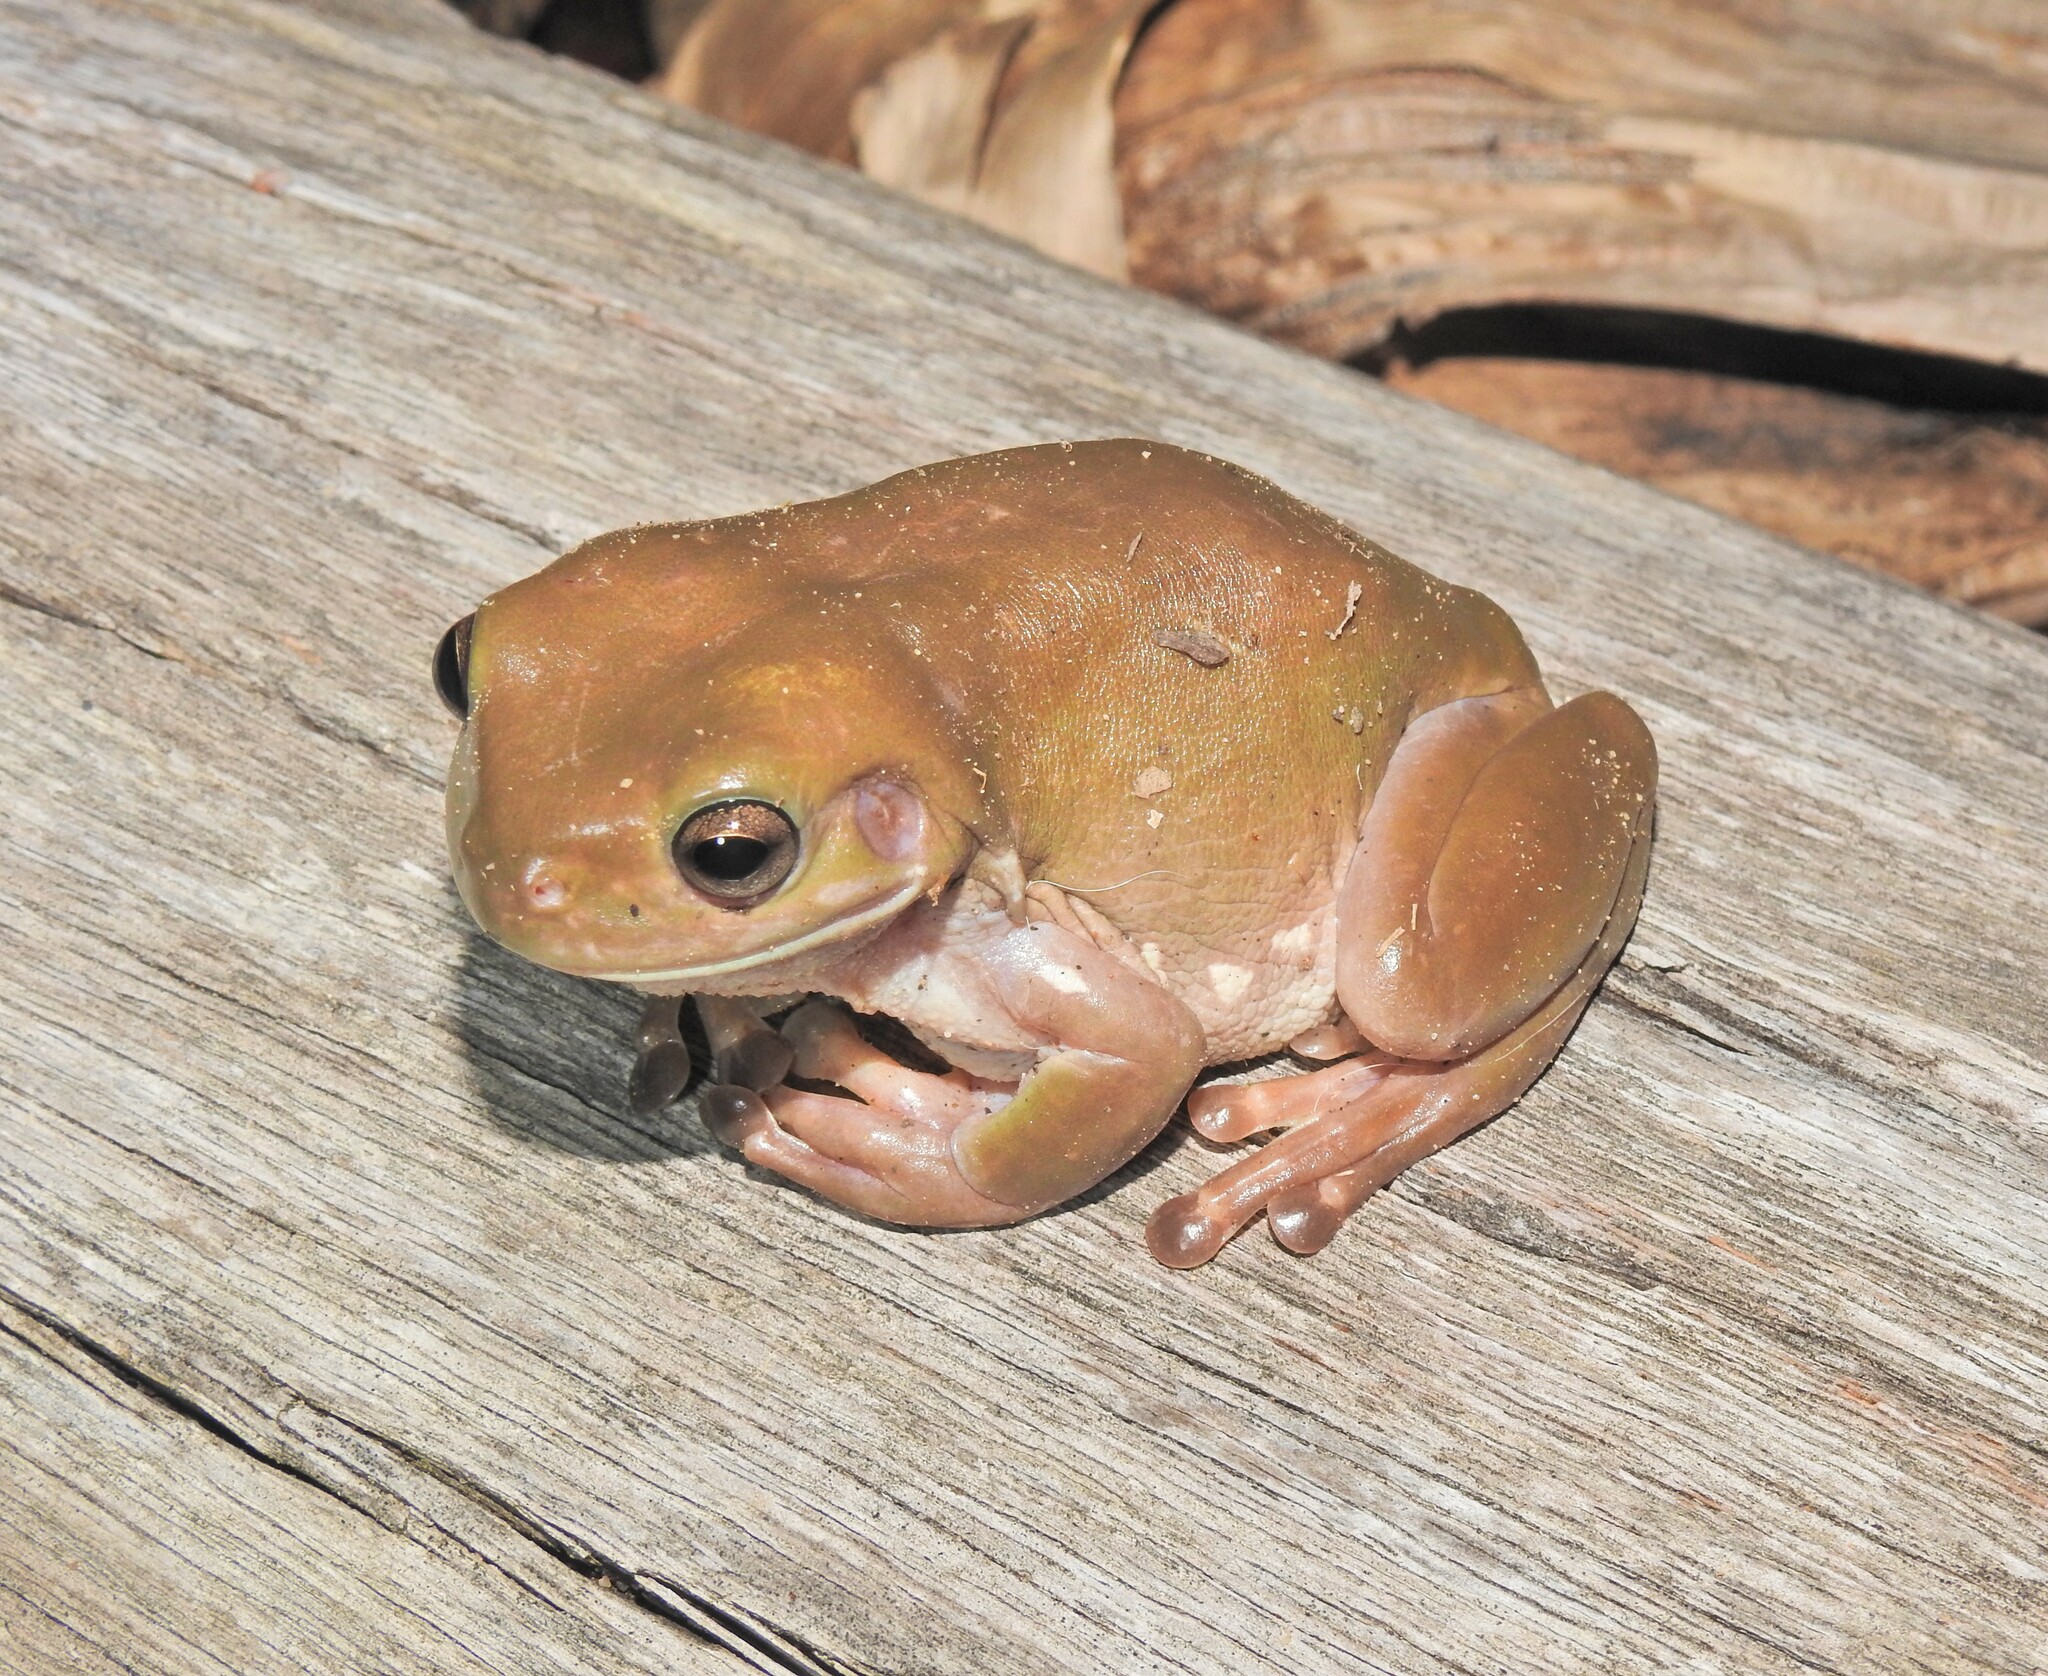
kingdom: Animalia
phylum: Chordata
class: Amphibia
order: Anura
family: Pelodryadidae
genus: Ranoidea
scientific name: Ranoidea caerulea
